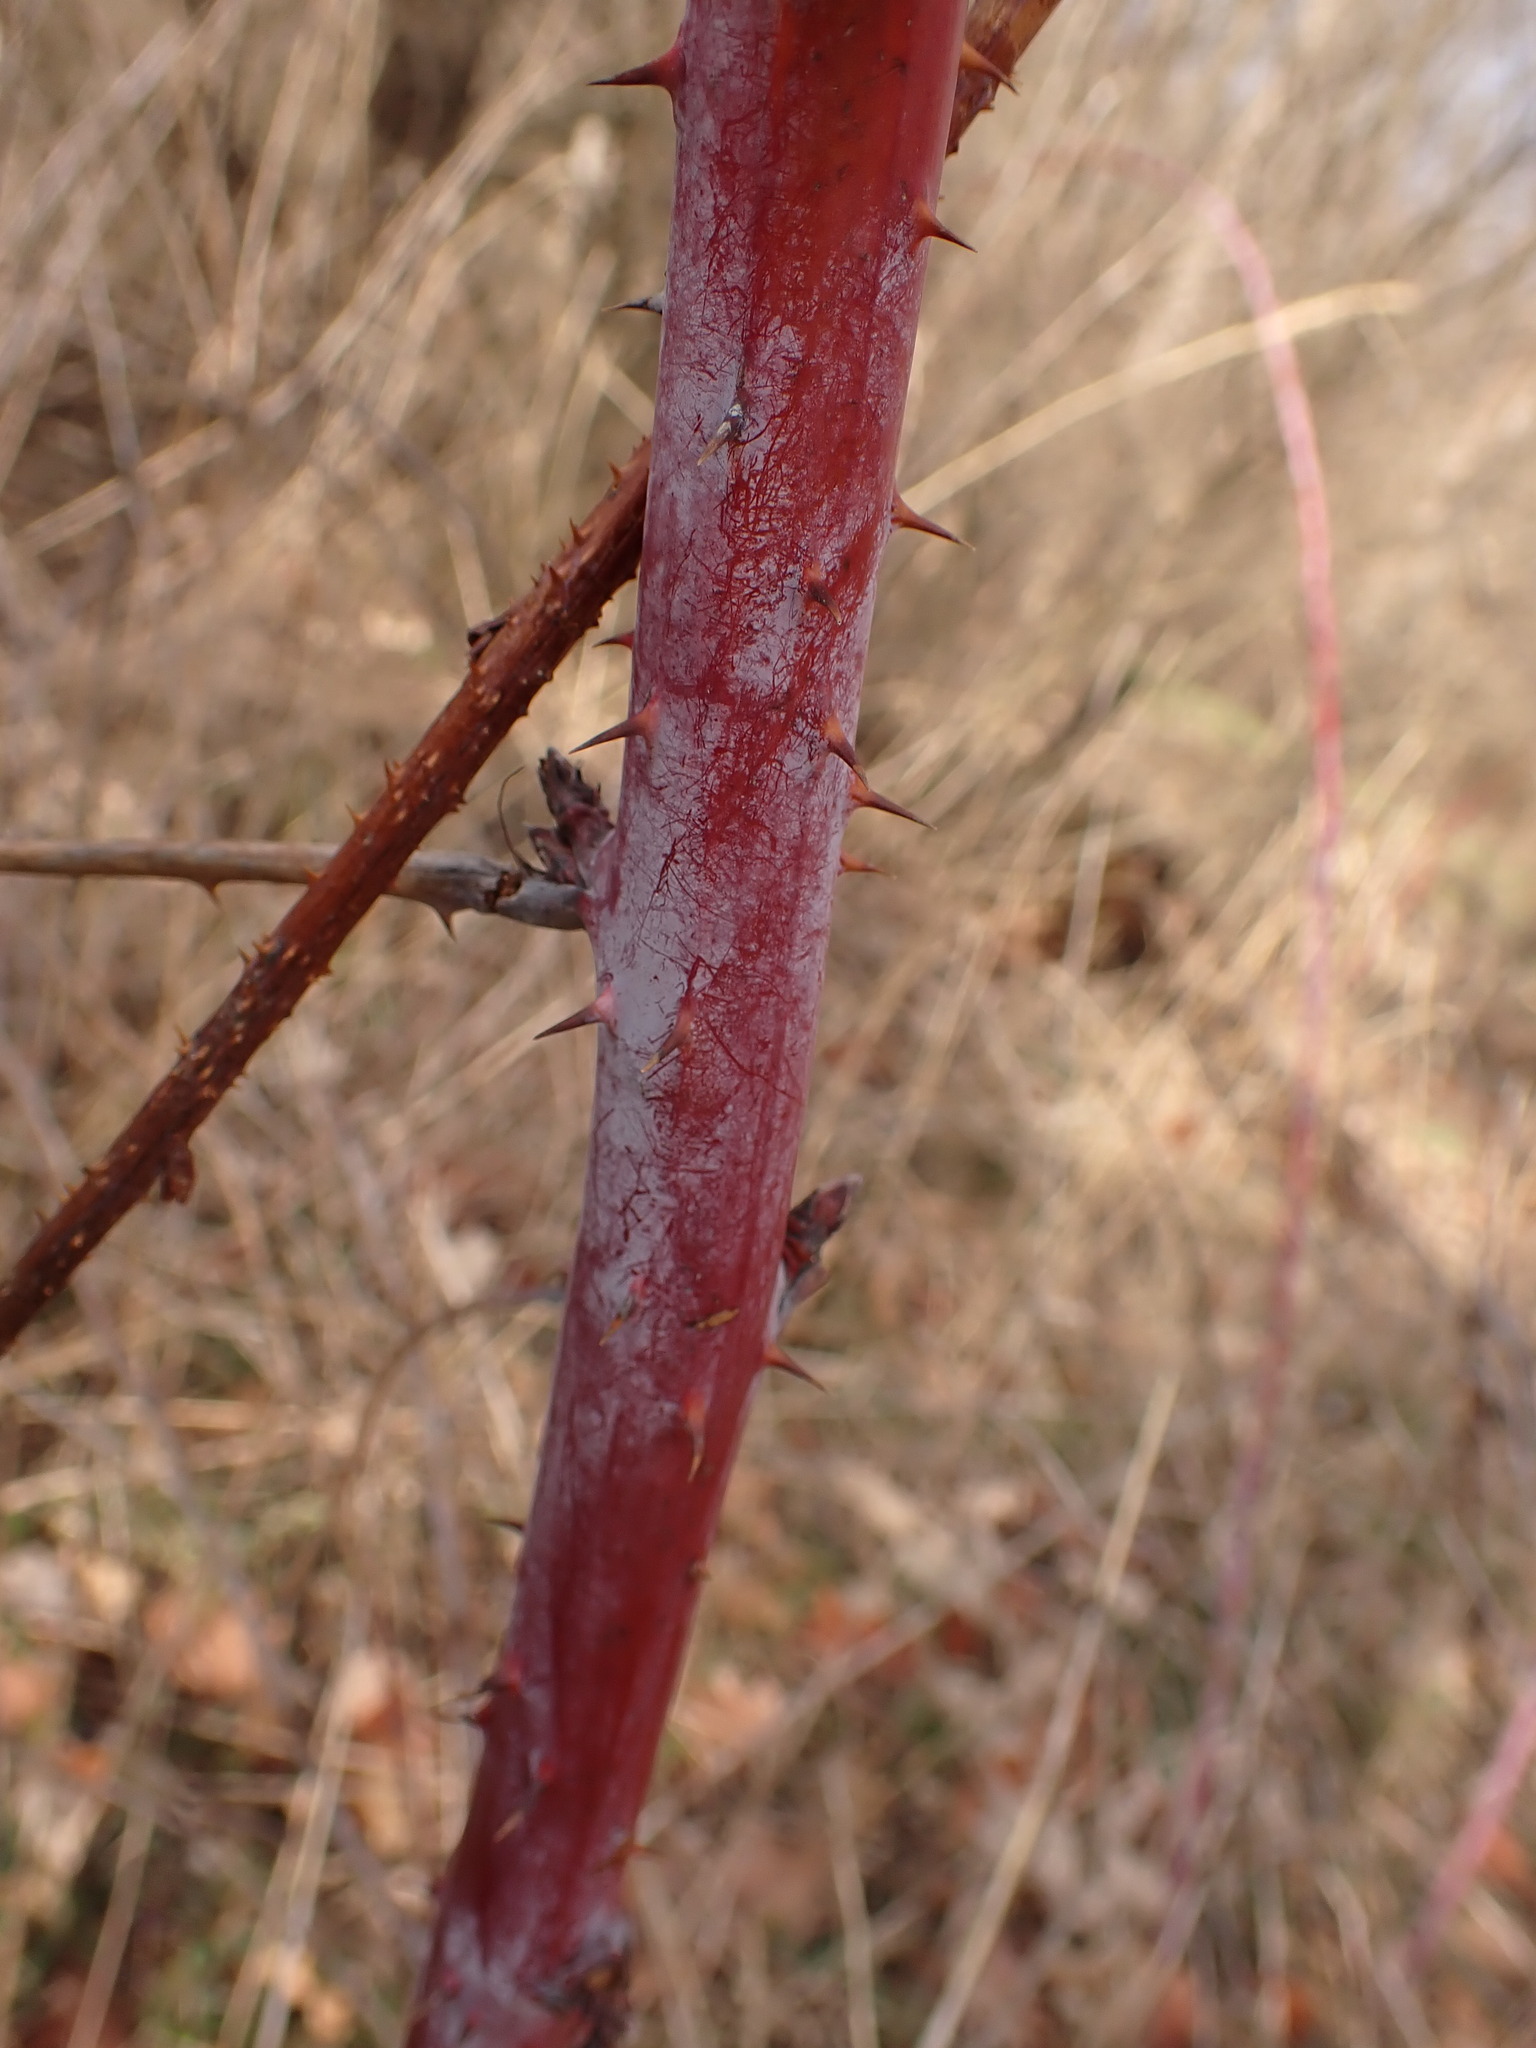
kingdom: Plantae
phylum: Tracheophyta
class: Magnoliopsida
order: Rosales
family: Rosaceae
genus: Rubus
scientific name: Rubus occidentalis
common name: Black raspberry
